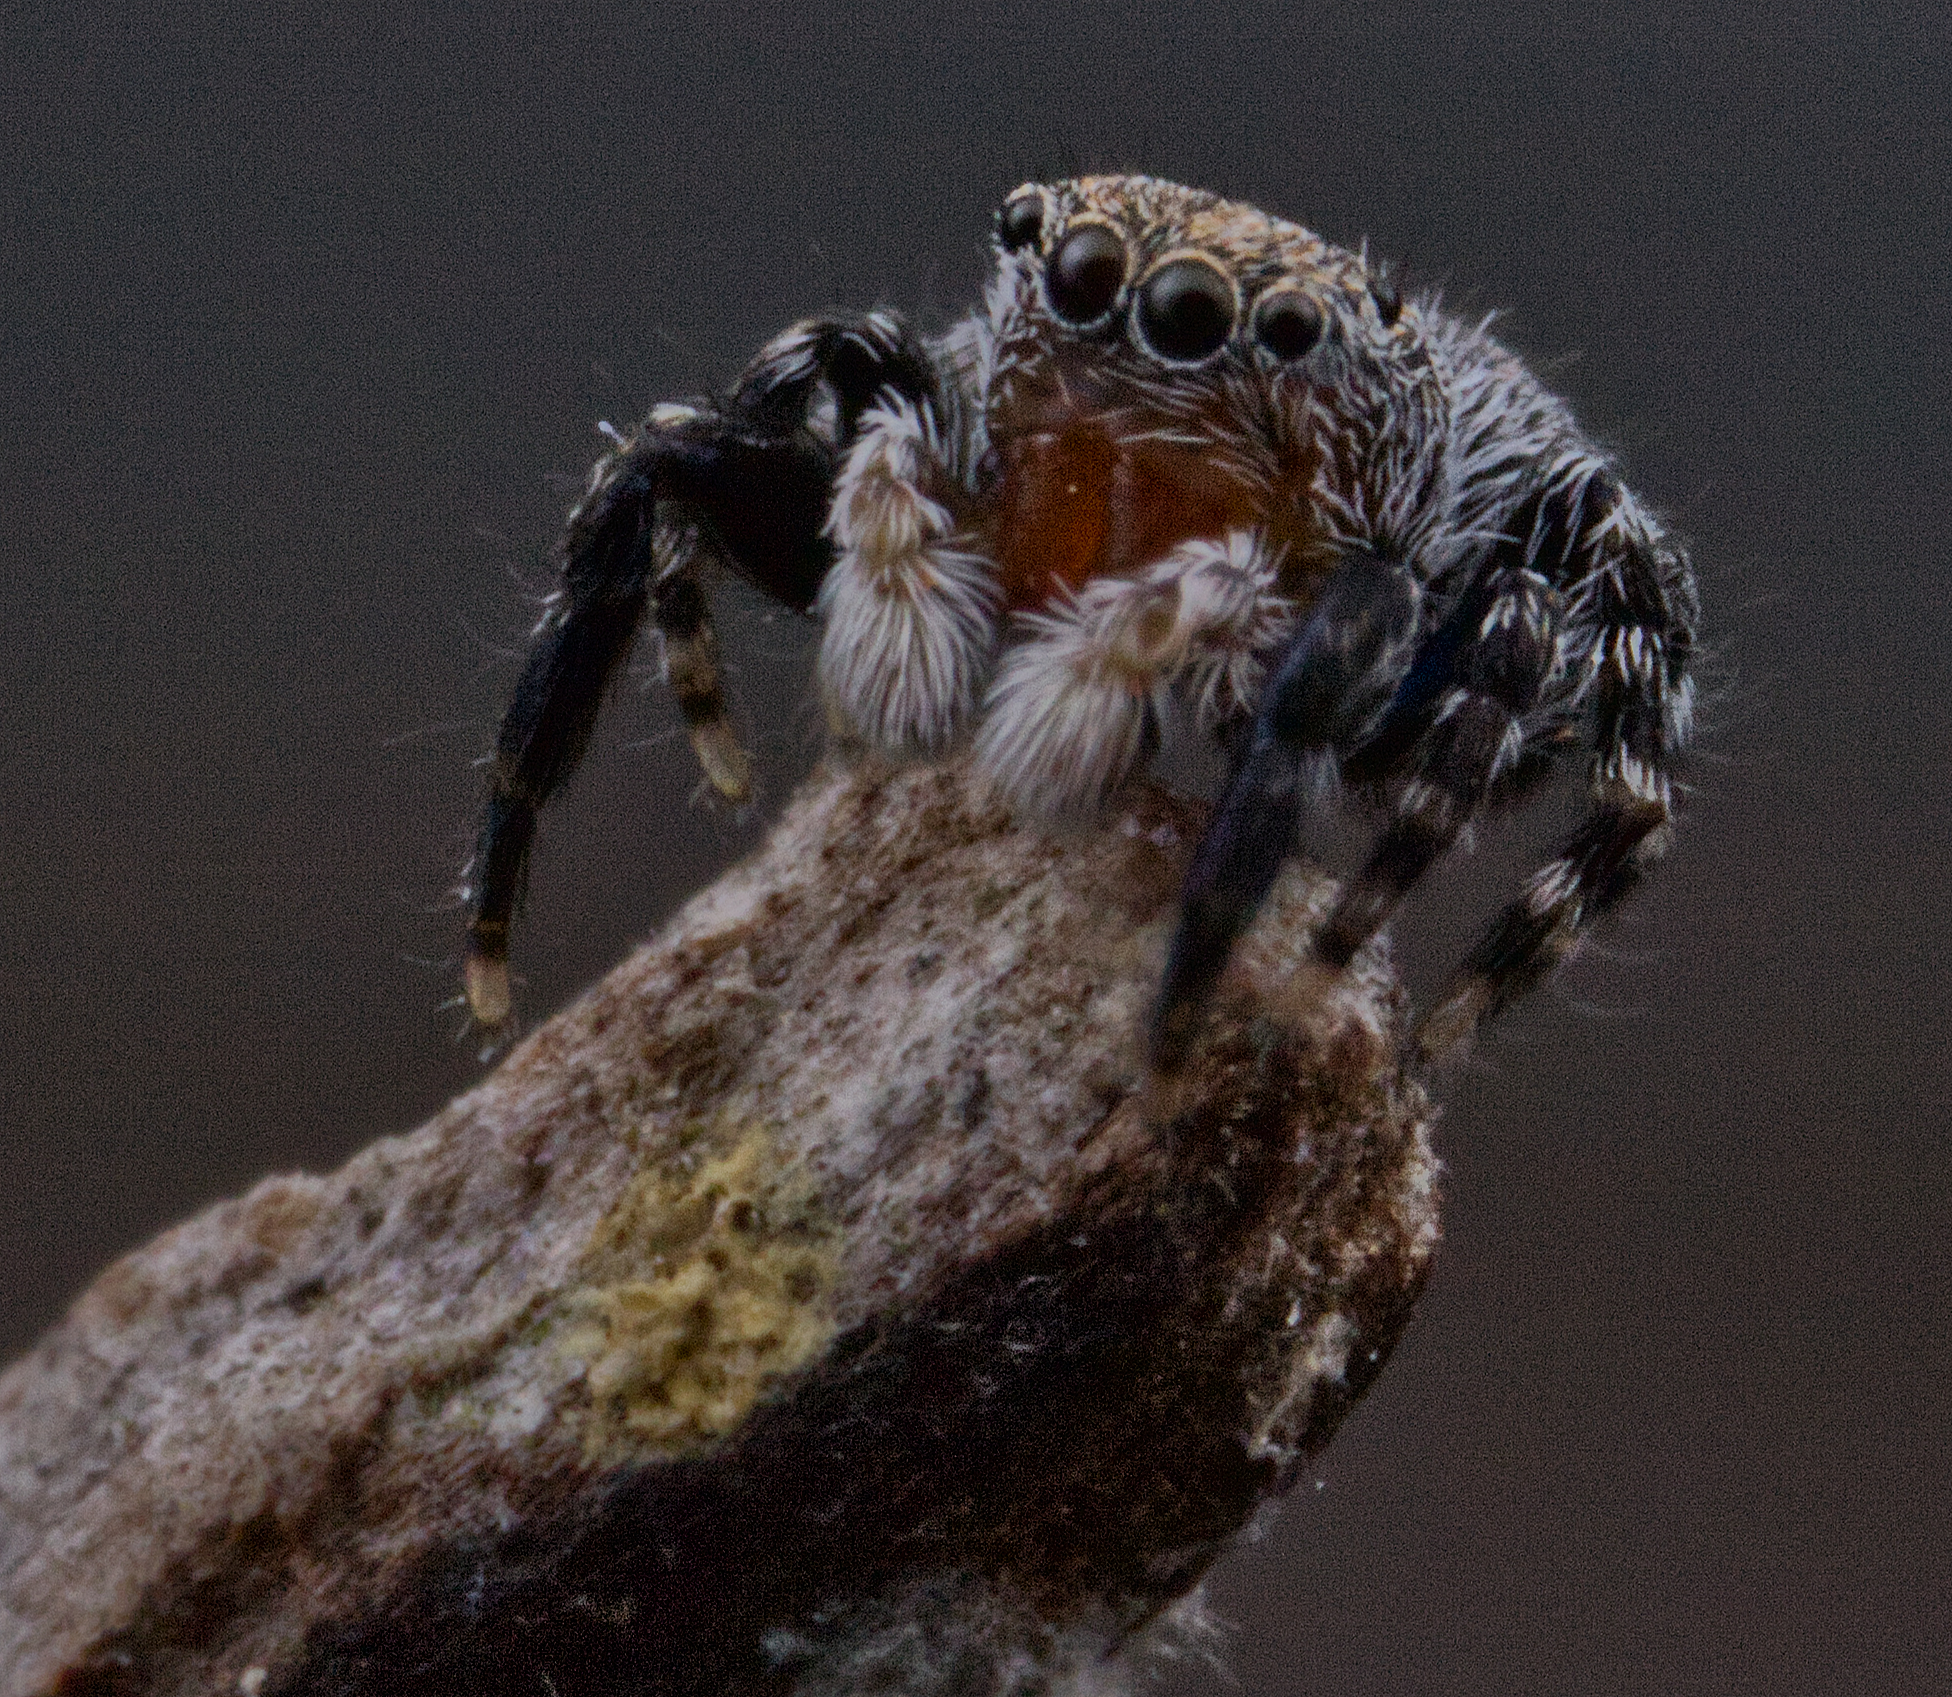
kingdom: Animalia
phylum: Arthropoda
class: Arachnida
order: Araneae
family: Salticidae
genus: Talavera
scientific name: Talavera minuta
